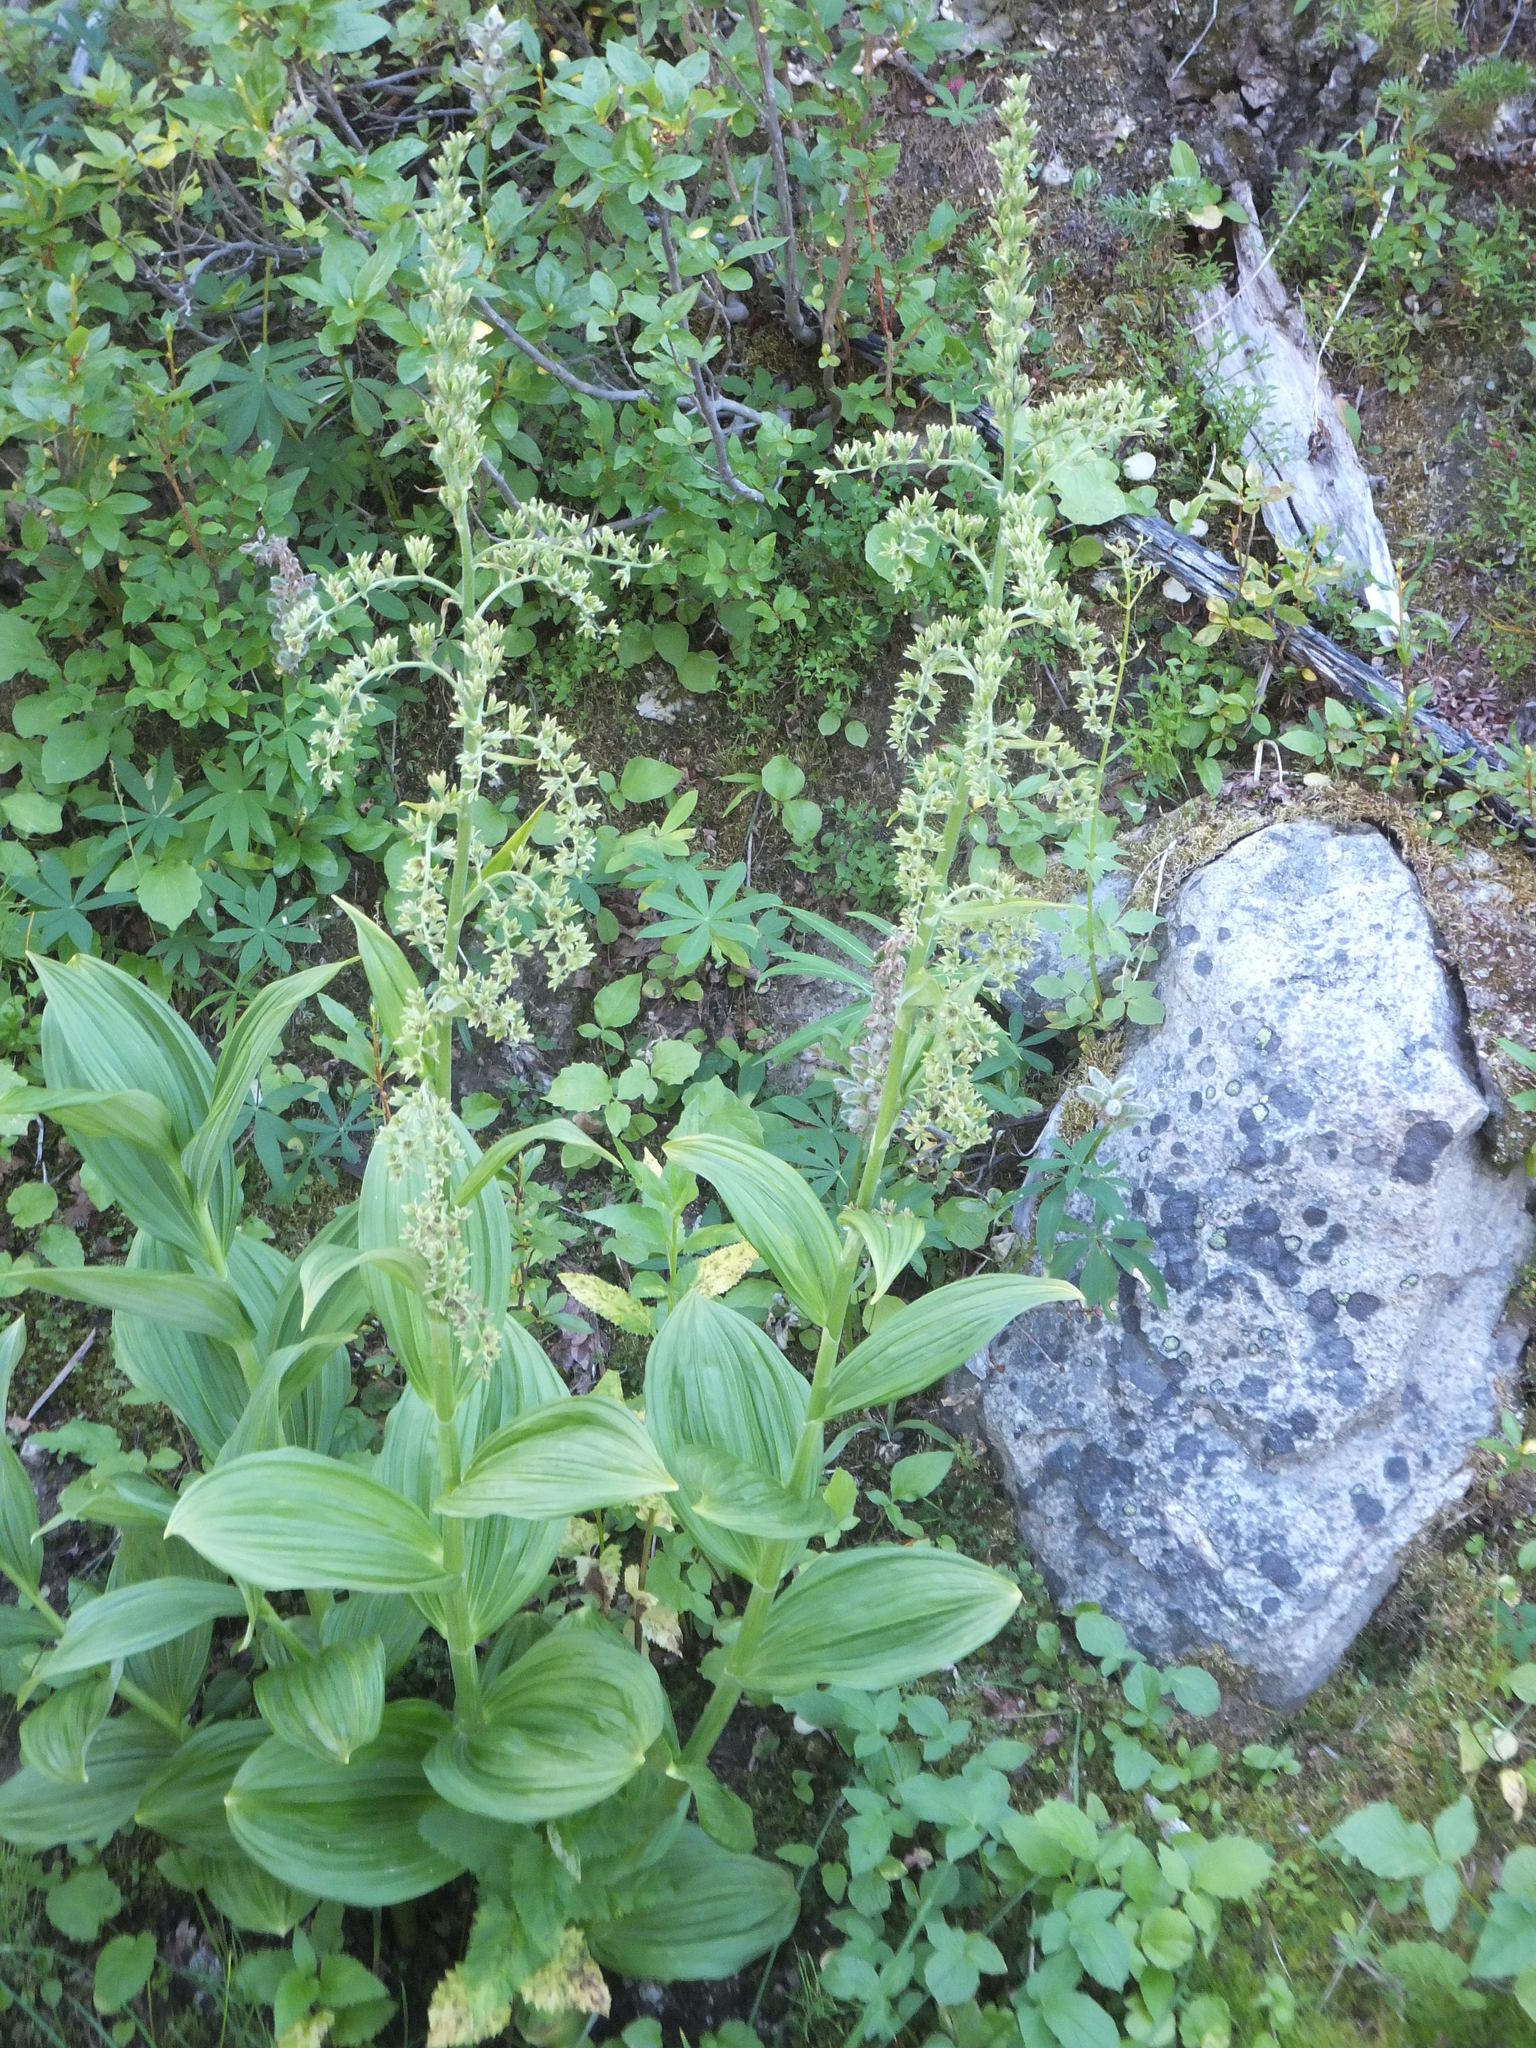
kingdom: Plantae
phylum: Tracheophyta
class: Liliopsida
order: Liliales
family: Melanthiaceae
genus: Veratrum
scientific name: Veratrum viride
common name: American false hellebore
